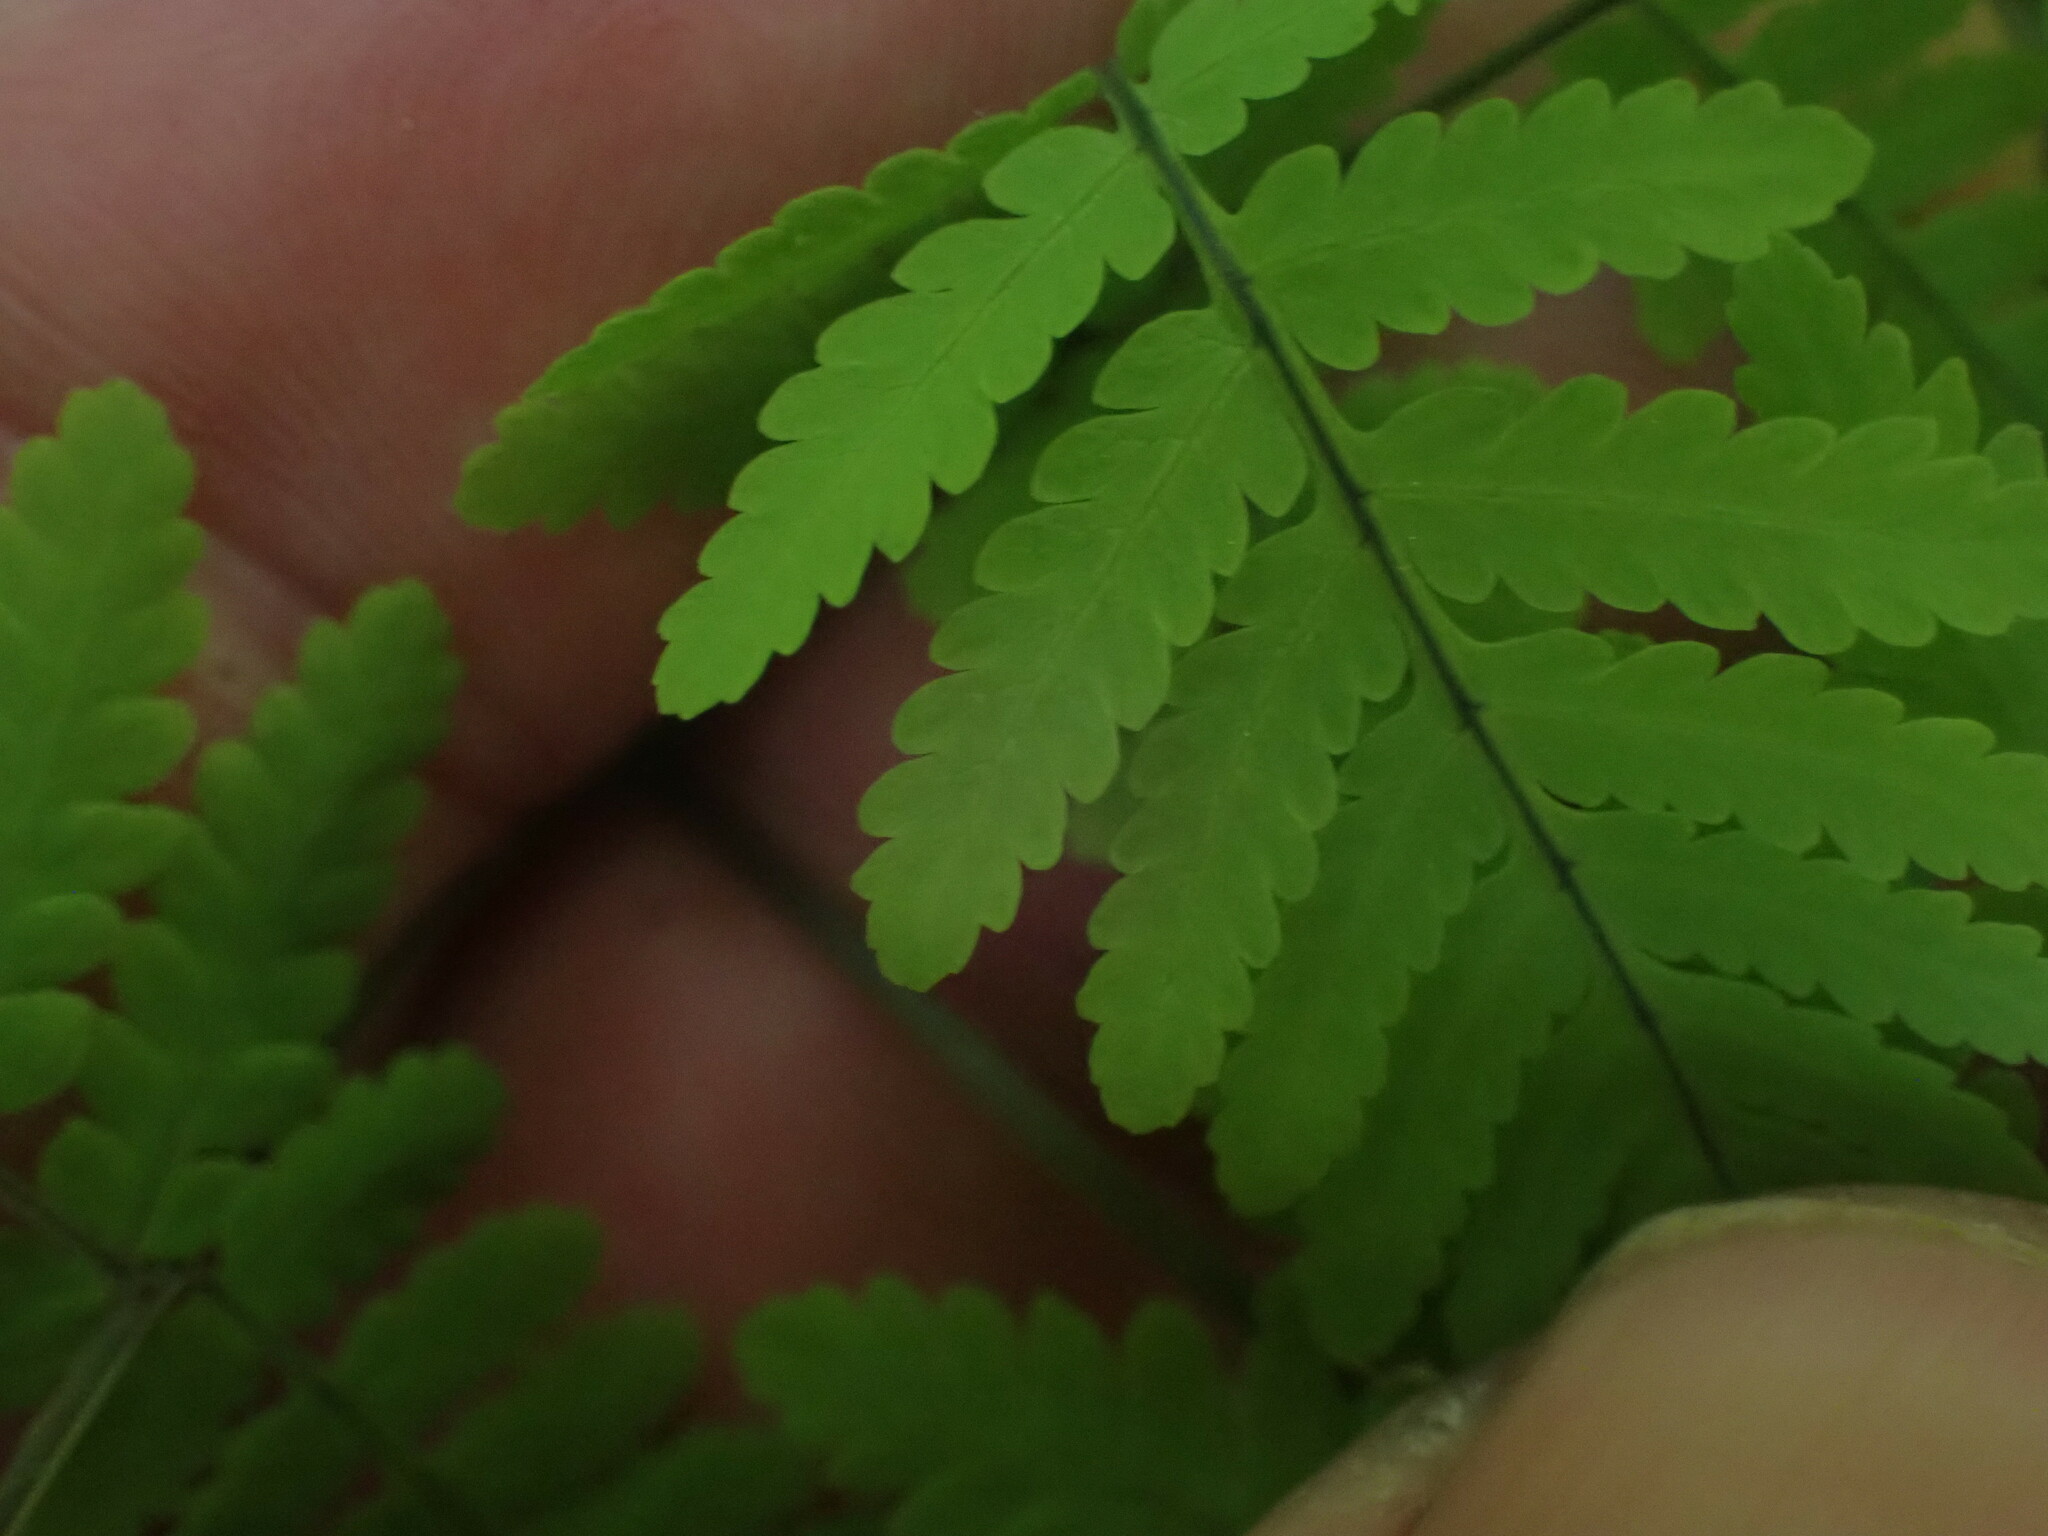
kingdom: Plantae
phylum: Tracheophyta
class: Polypodiopsida
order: Polypodiales
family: Cystopteridaceae
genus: Gymnocarpium
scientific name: Gymnocarpium disjunctum
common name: Western oak fern
